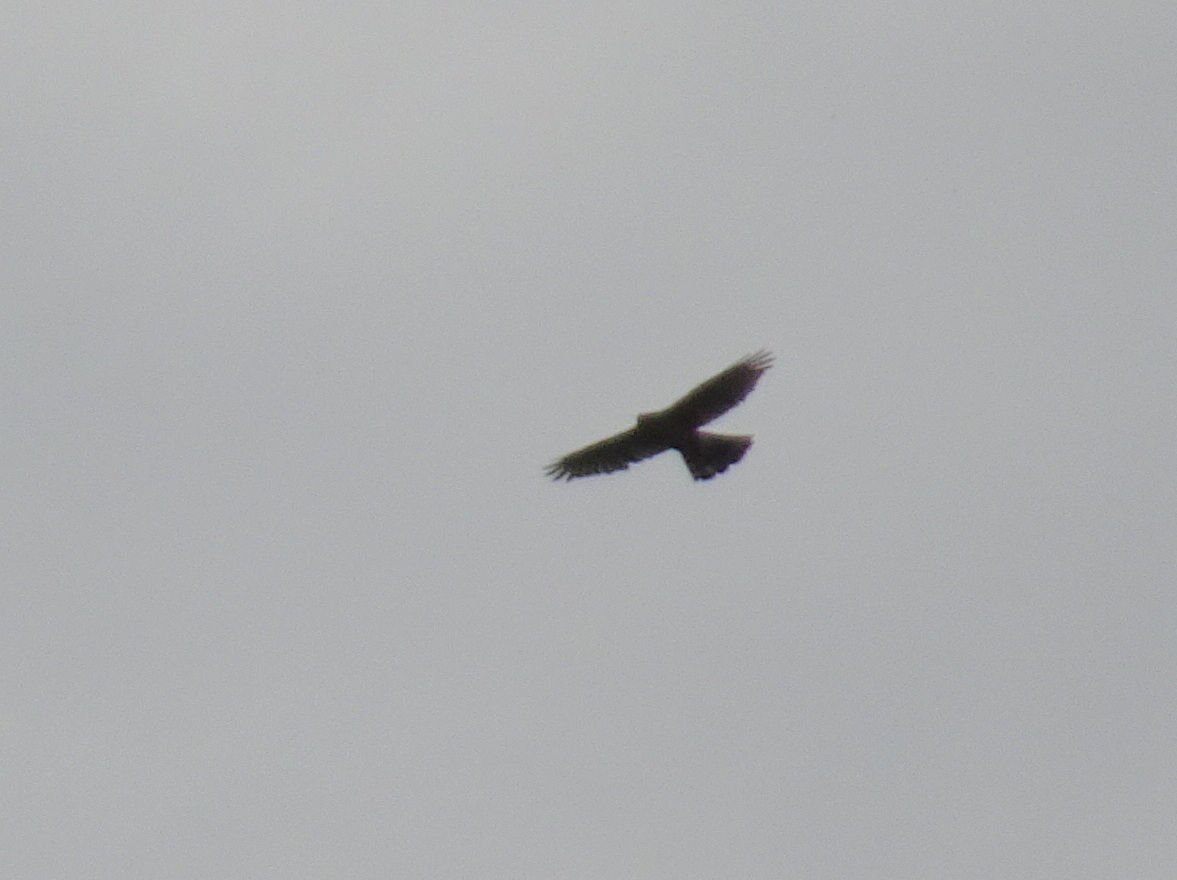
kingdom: Animalia
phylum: Chordata
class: Aves
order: Accipitriformes
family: Accipitridae
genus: Accipiter
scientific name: Accipiter cooperii
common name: Cooper's hawk
